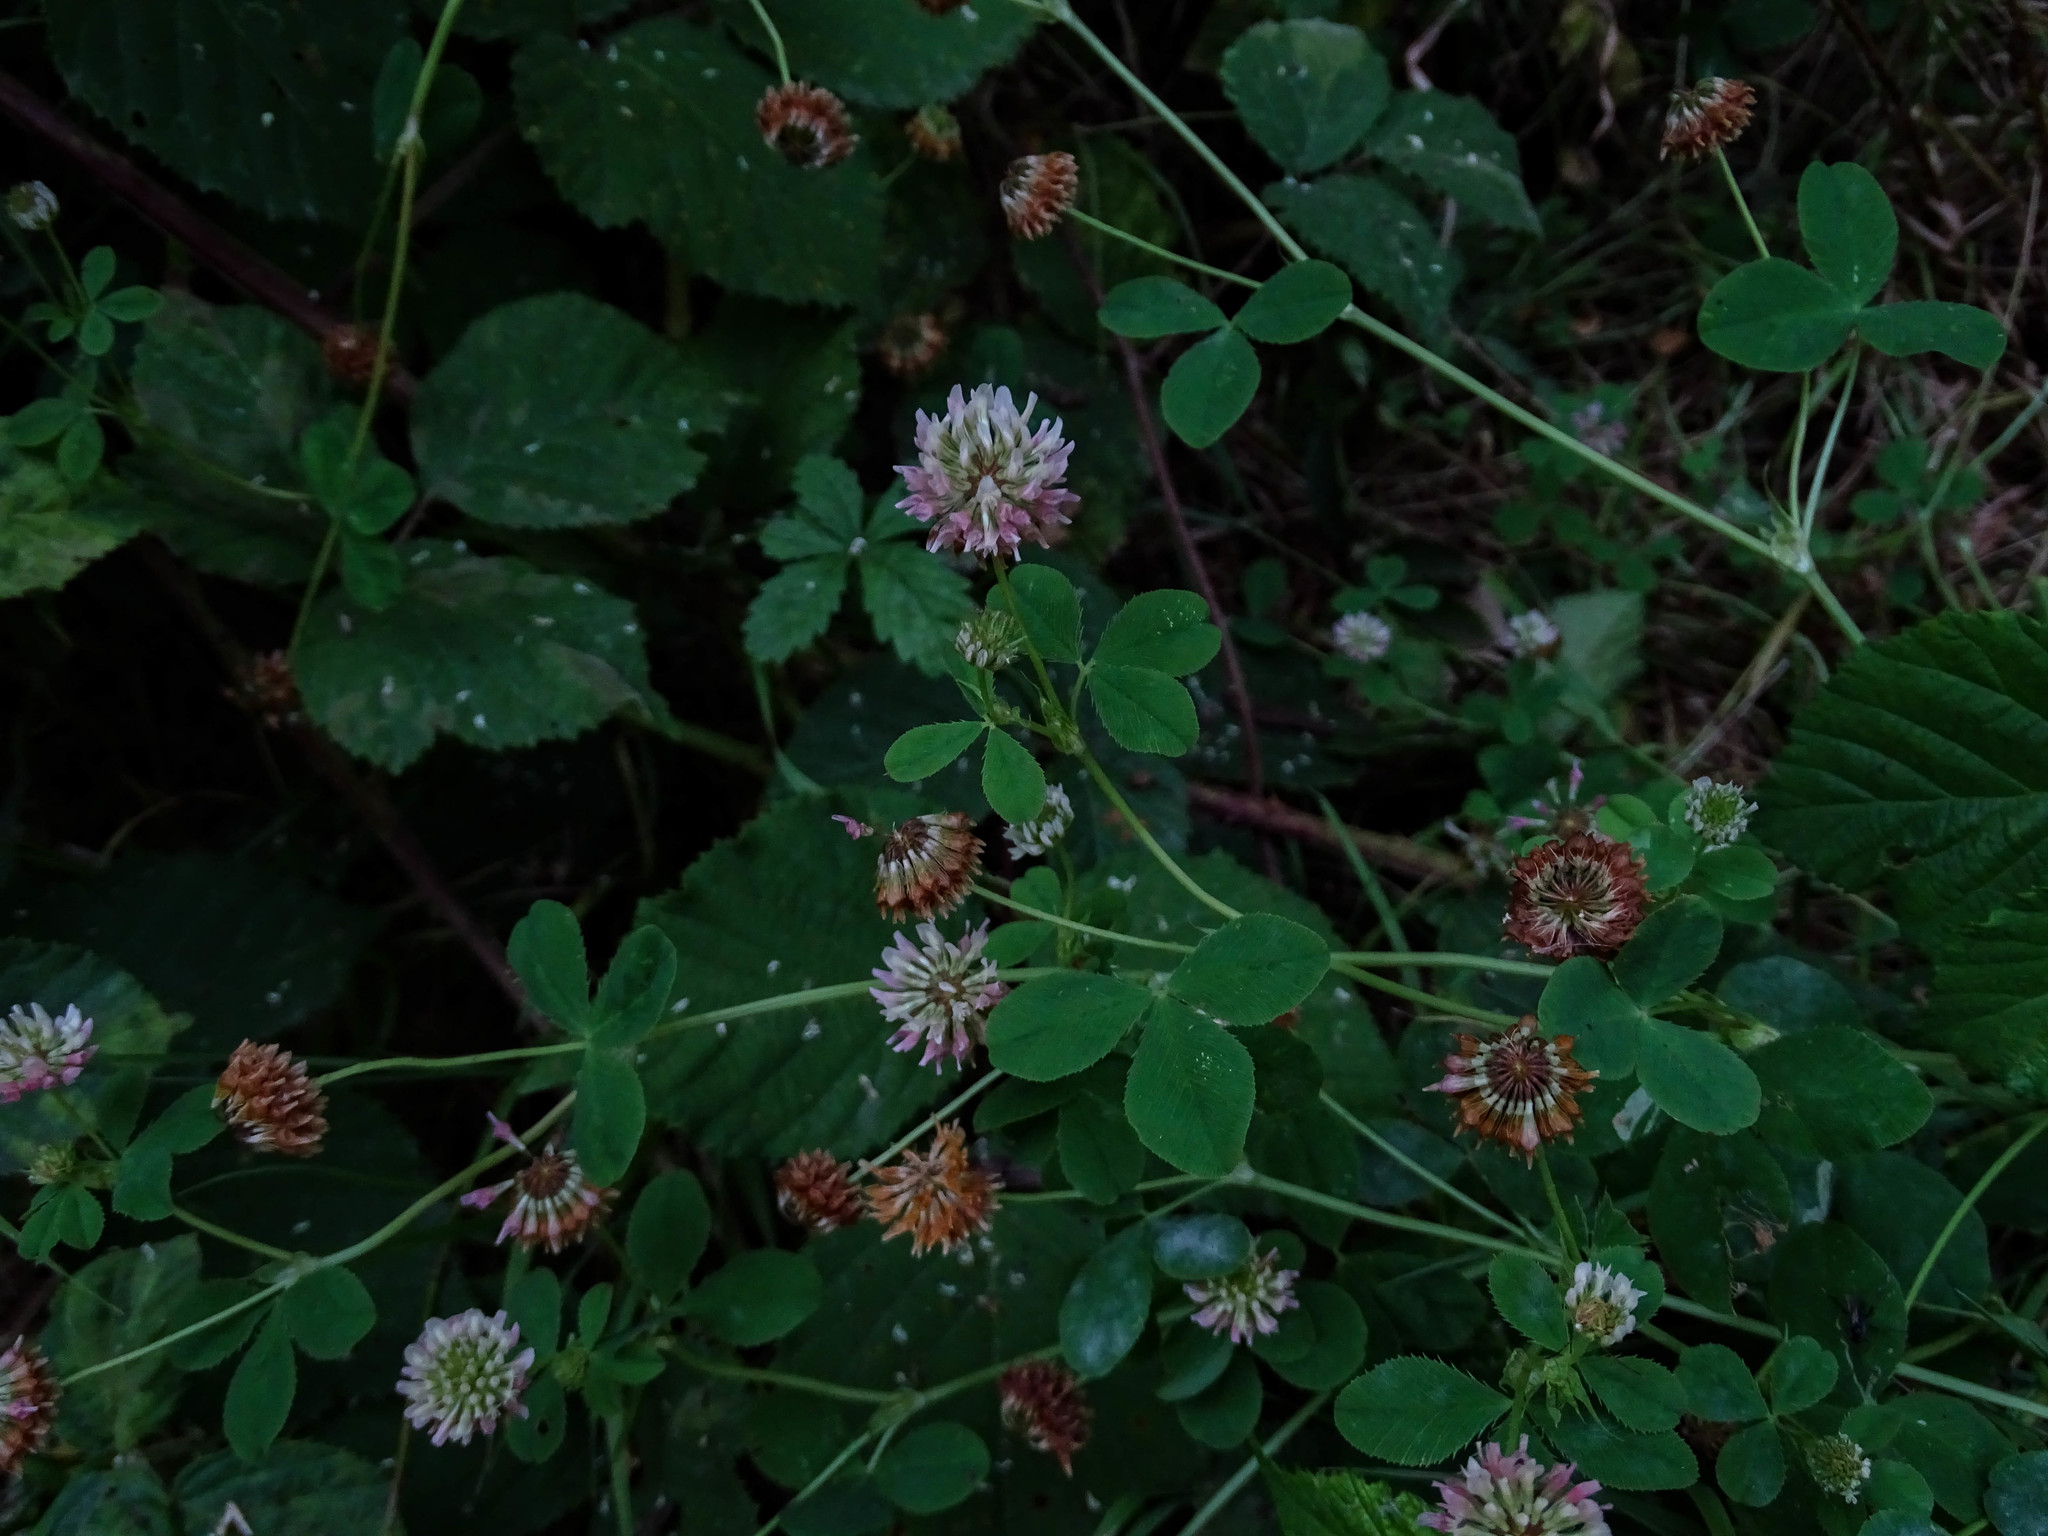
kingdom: Plantae
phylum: Tracheophyta
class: Magnoliopsida
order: Fabales
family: Fabaceae
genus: Trifolium
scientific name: Trifolium hybridum
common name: Alsike clover
